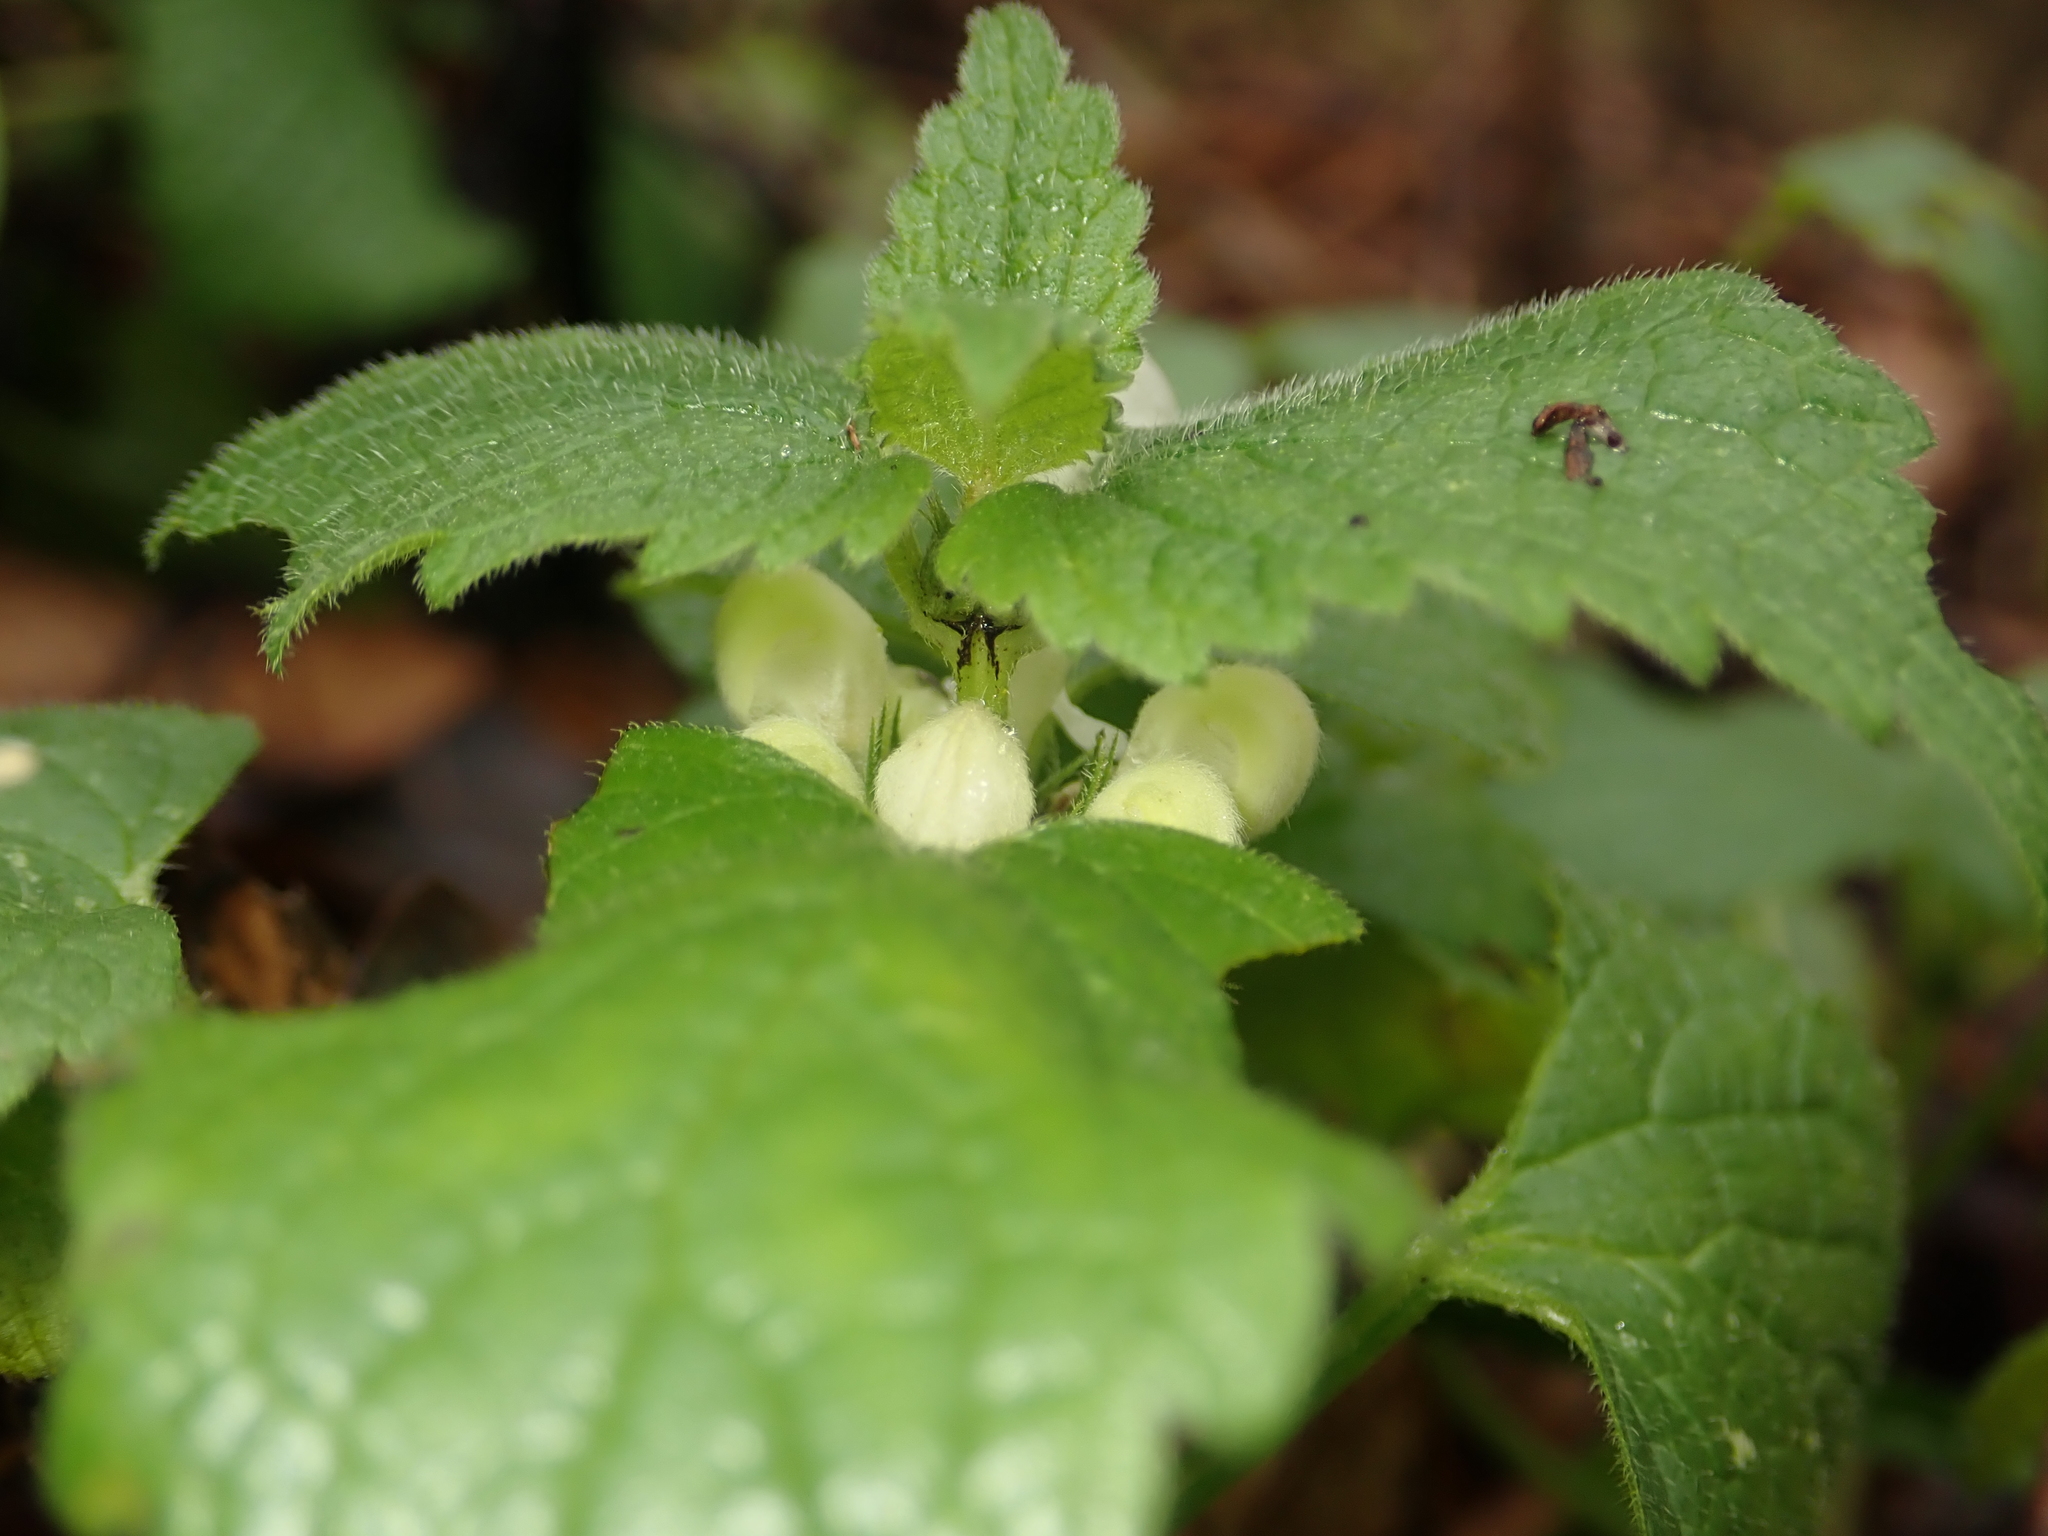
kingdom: Plantae
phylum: Tracheophyta
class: Magnoliopsida
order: Lamiales
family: Lamiaceae
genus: Lamium
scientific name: Lamium album
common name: White dead-nettle
